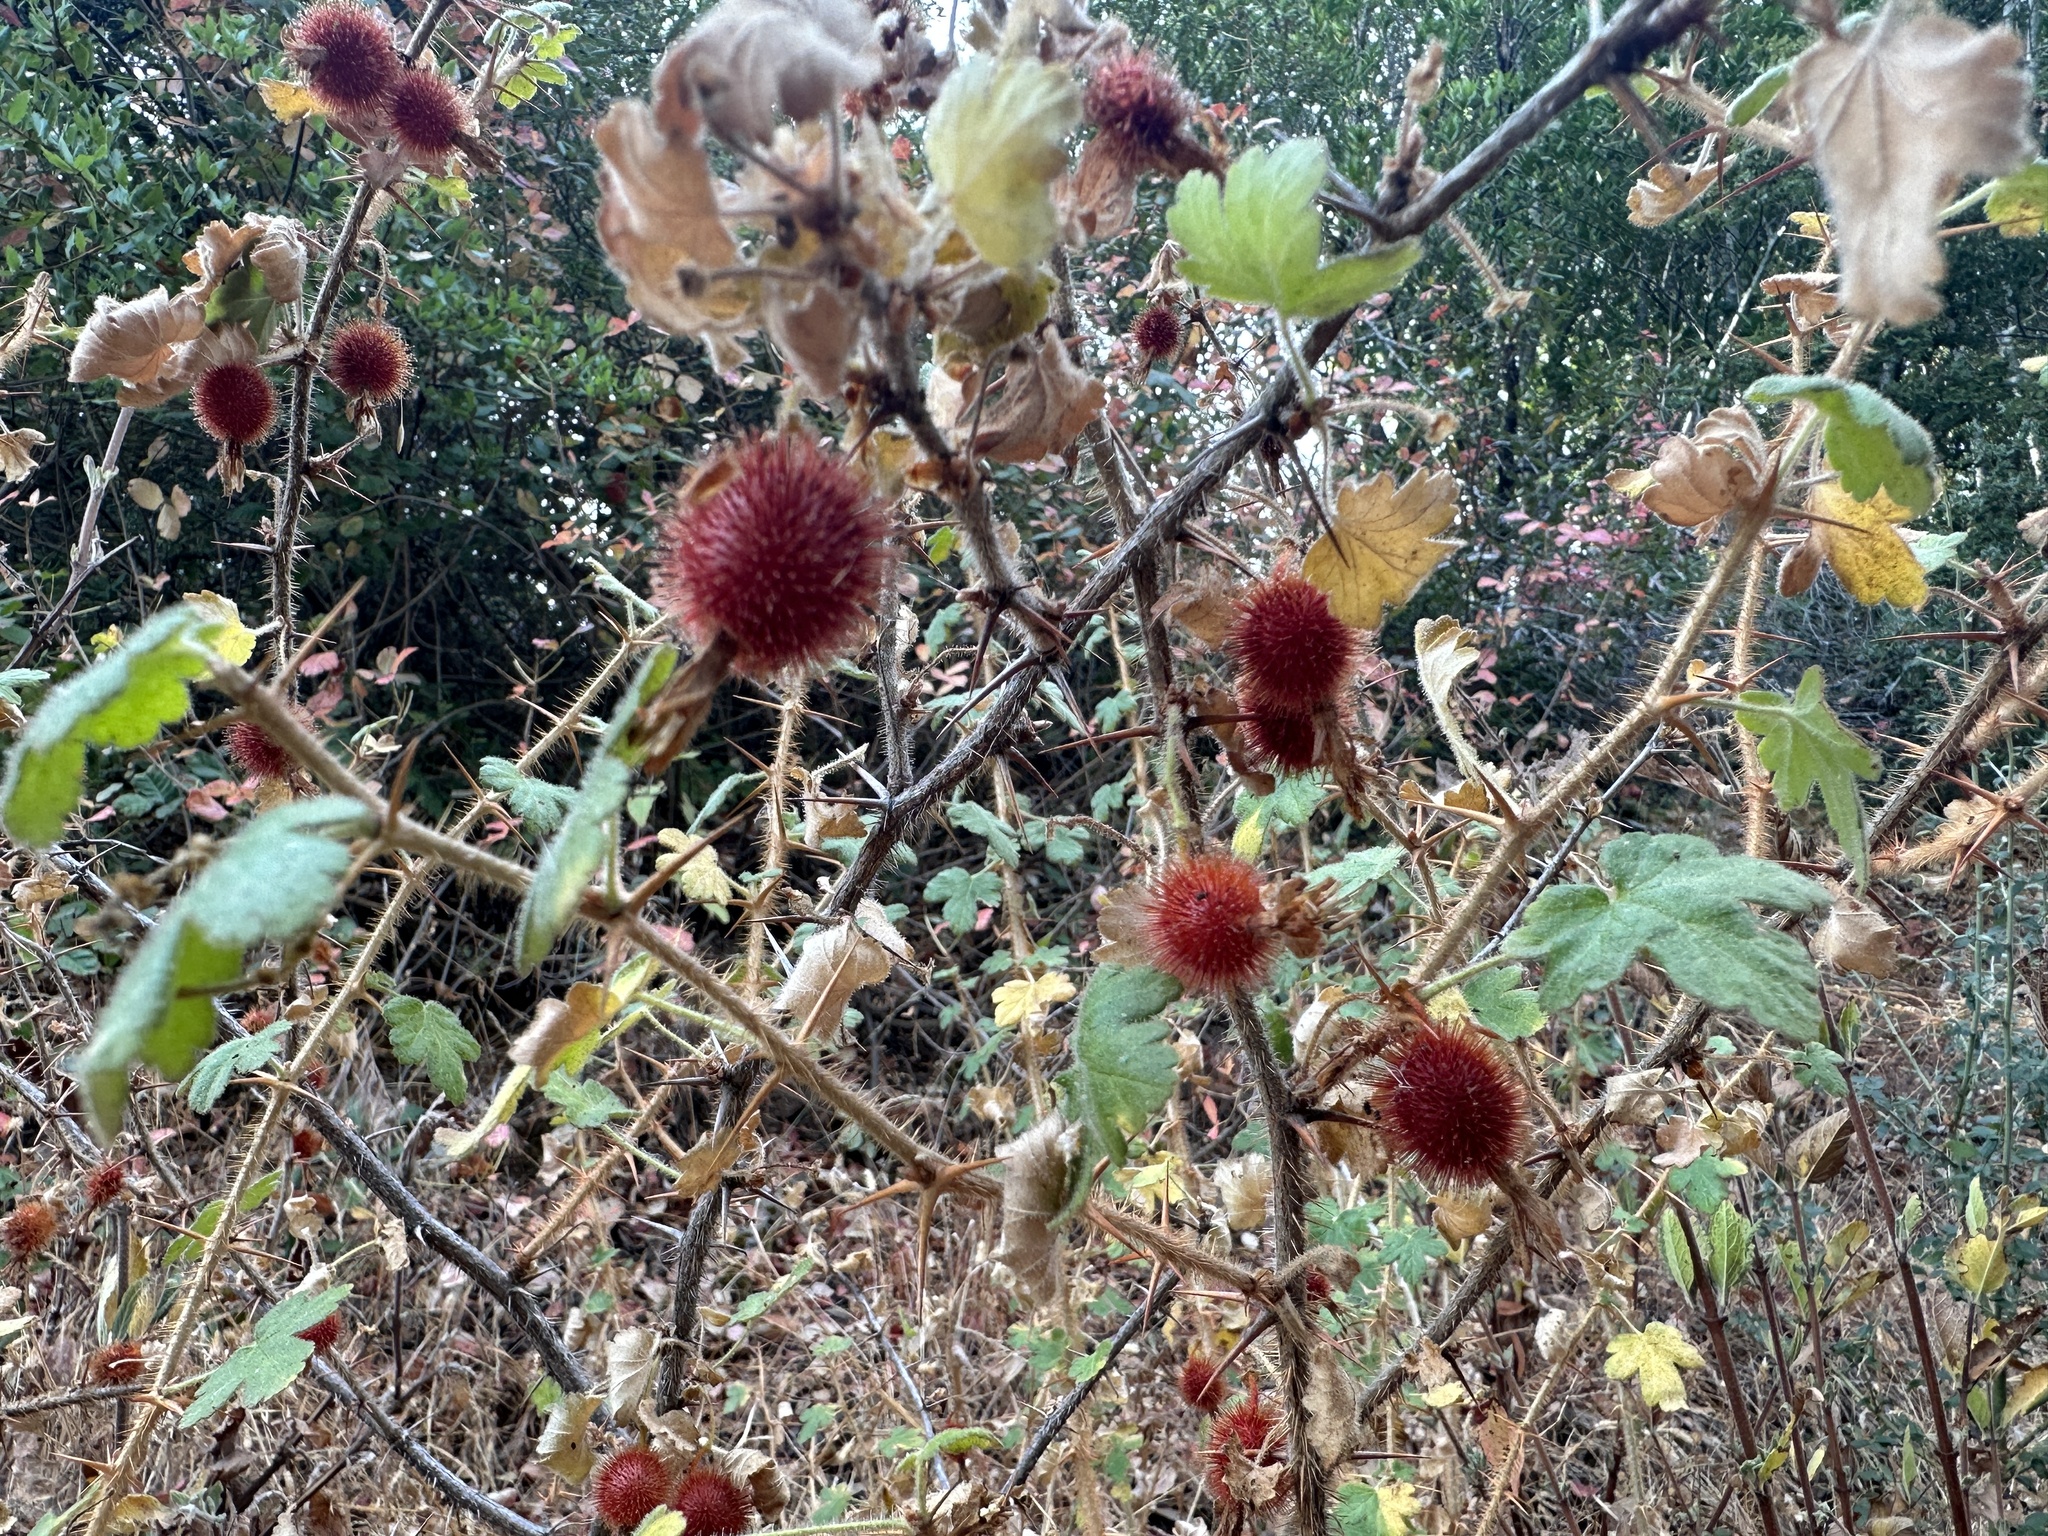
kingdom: Plantae
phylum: Tracheophyta
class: Magnoliopsida
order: Saxifragales
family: Grossulariaceae
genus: Ribes
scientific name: Ribes menziesii
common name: Canyon gooseberry
